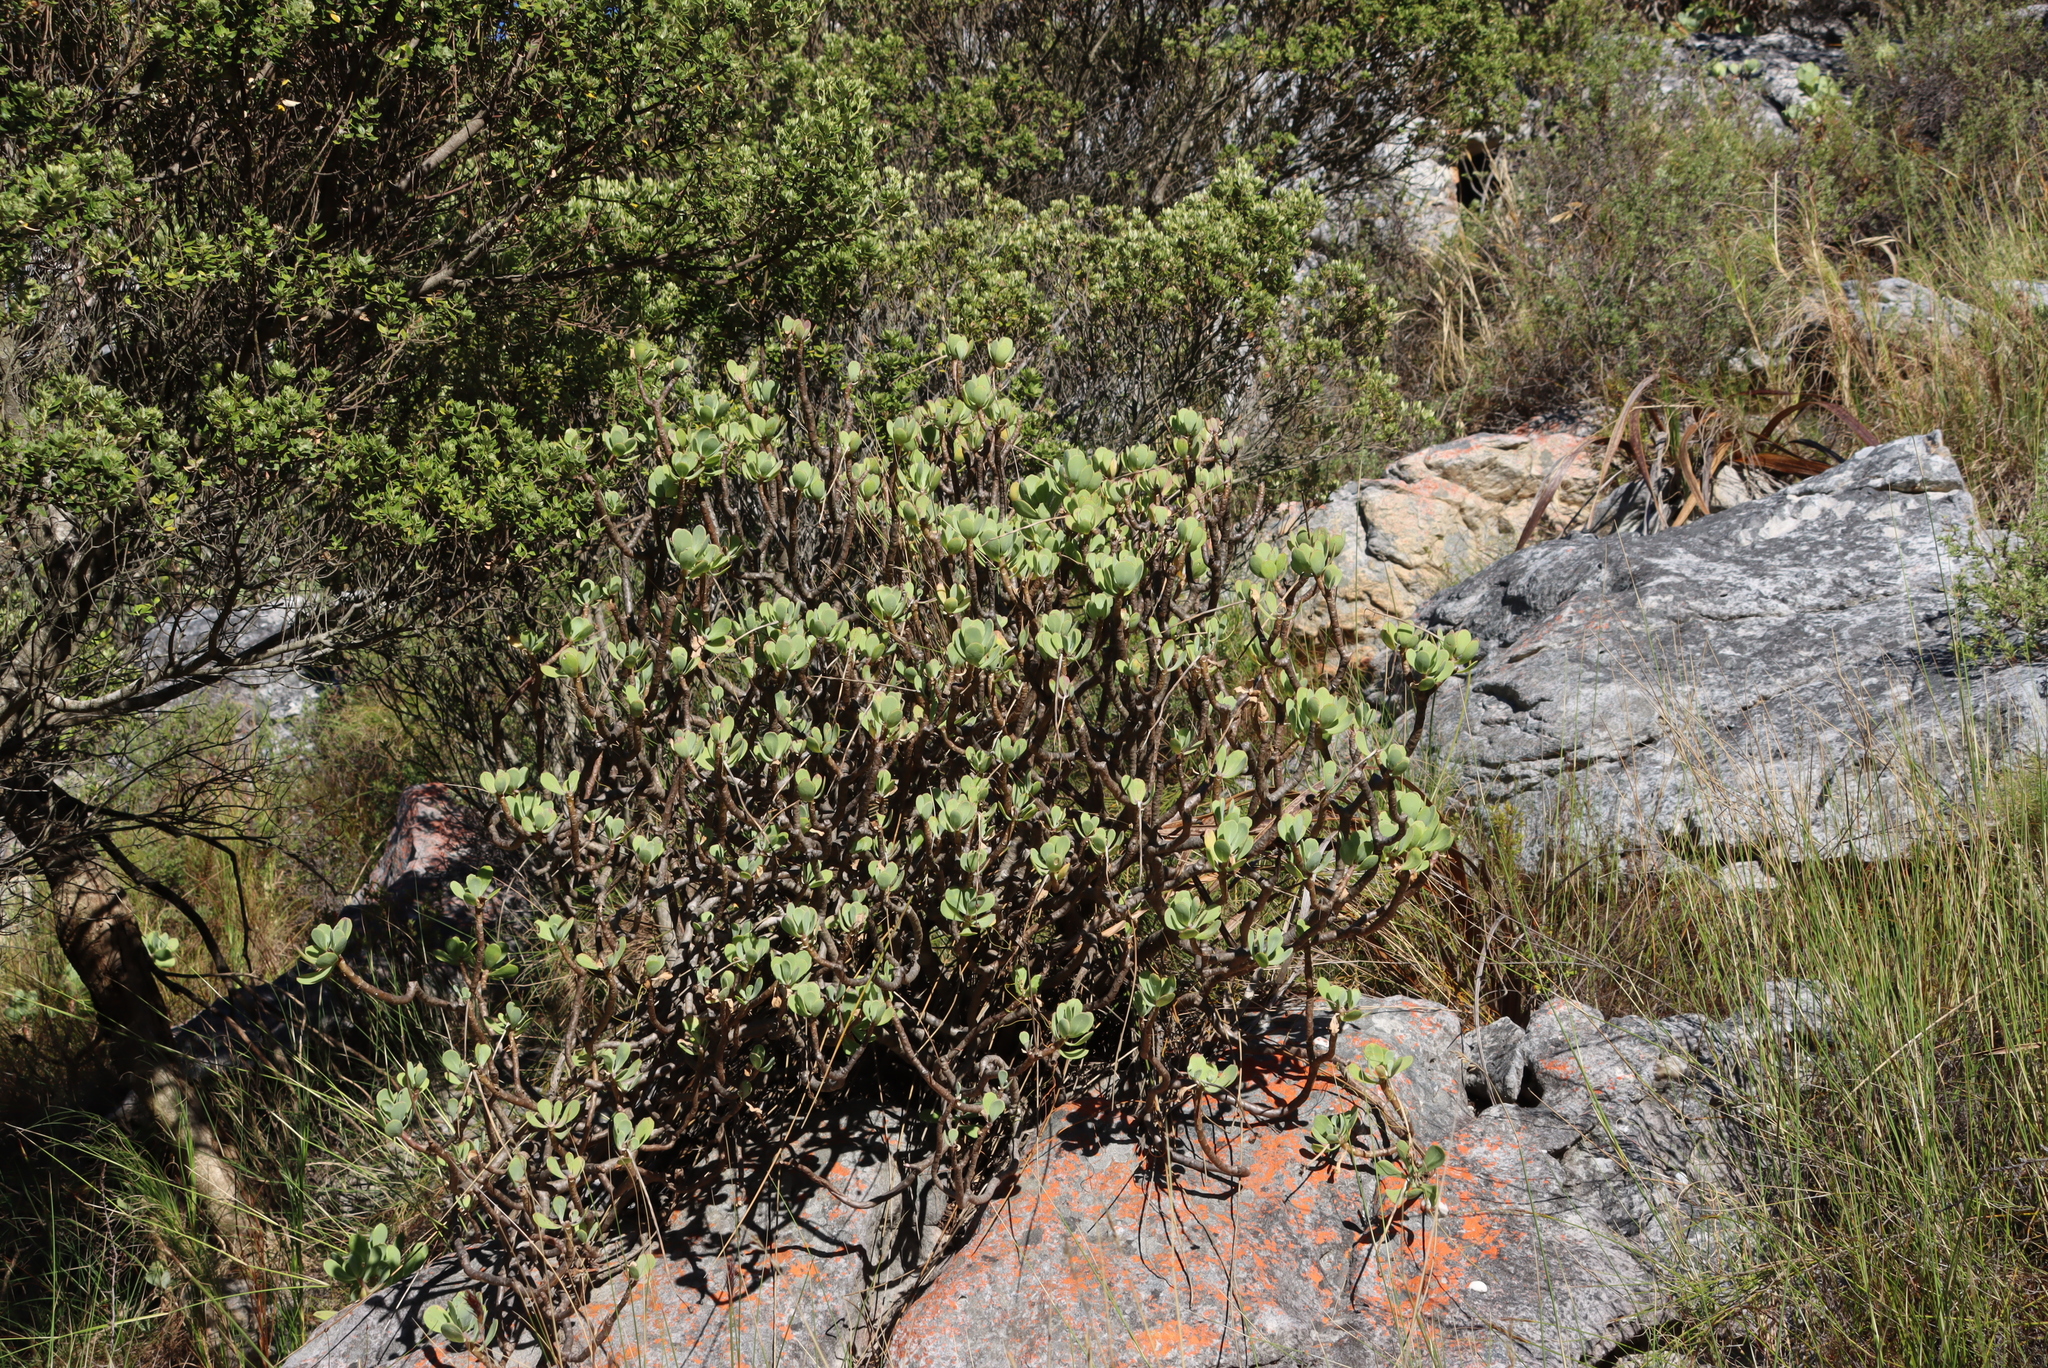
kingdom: Plantae
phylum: Tracheophyta
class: Magnoliopsida
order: Asterales
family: Asteraceae
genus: Othonna
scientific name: Othonna dentata
